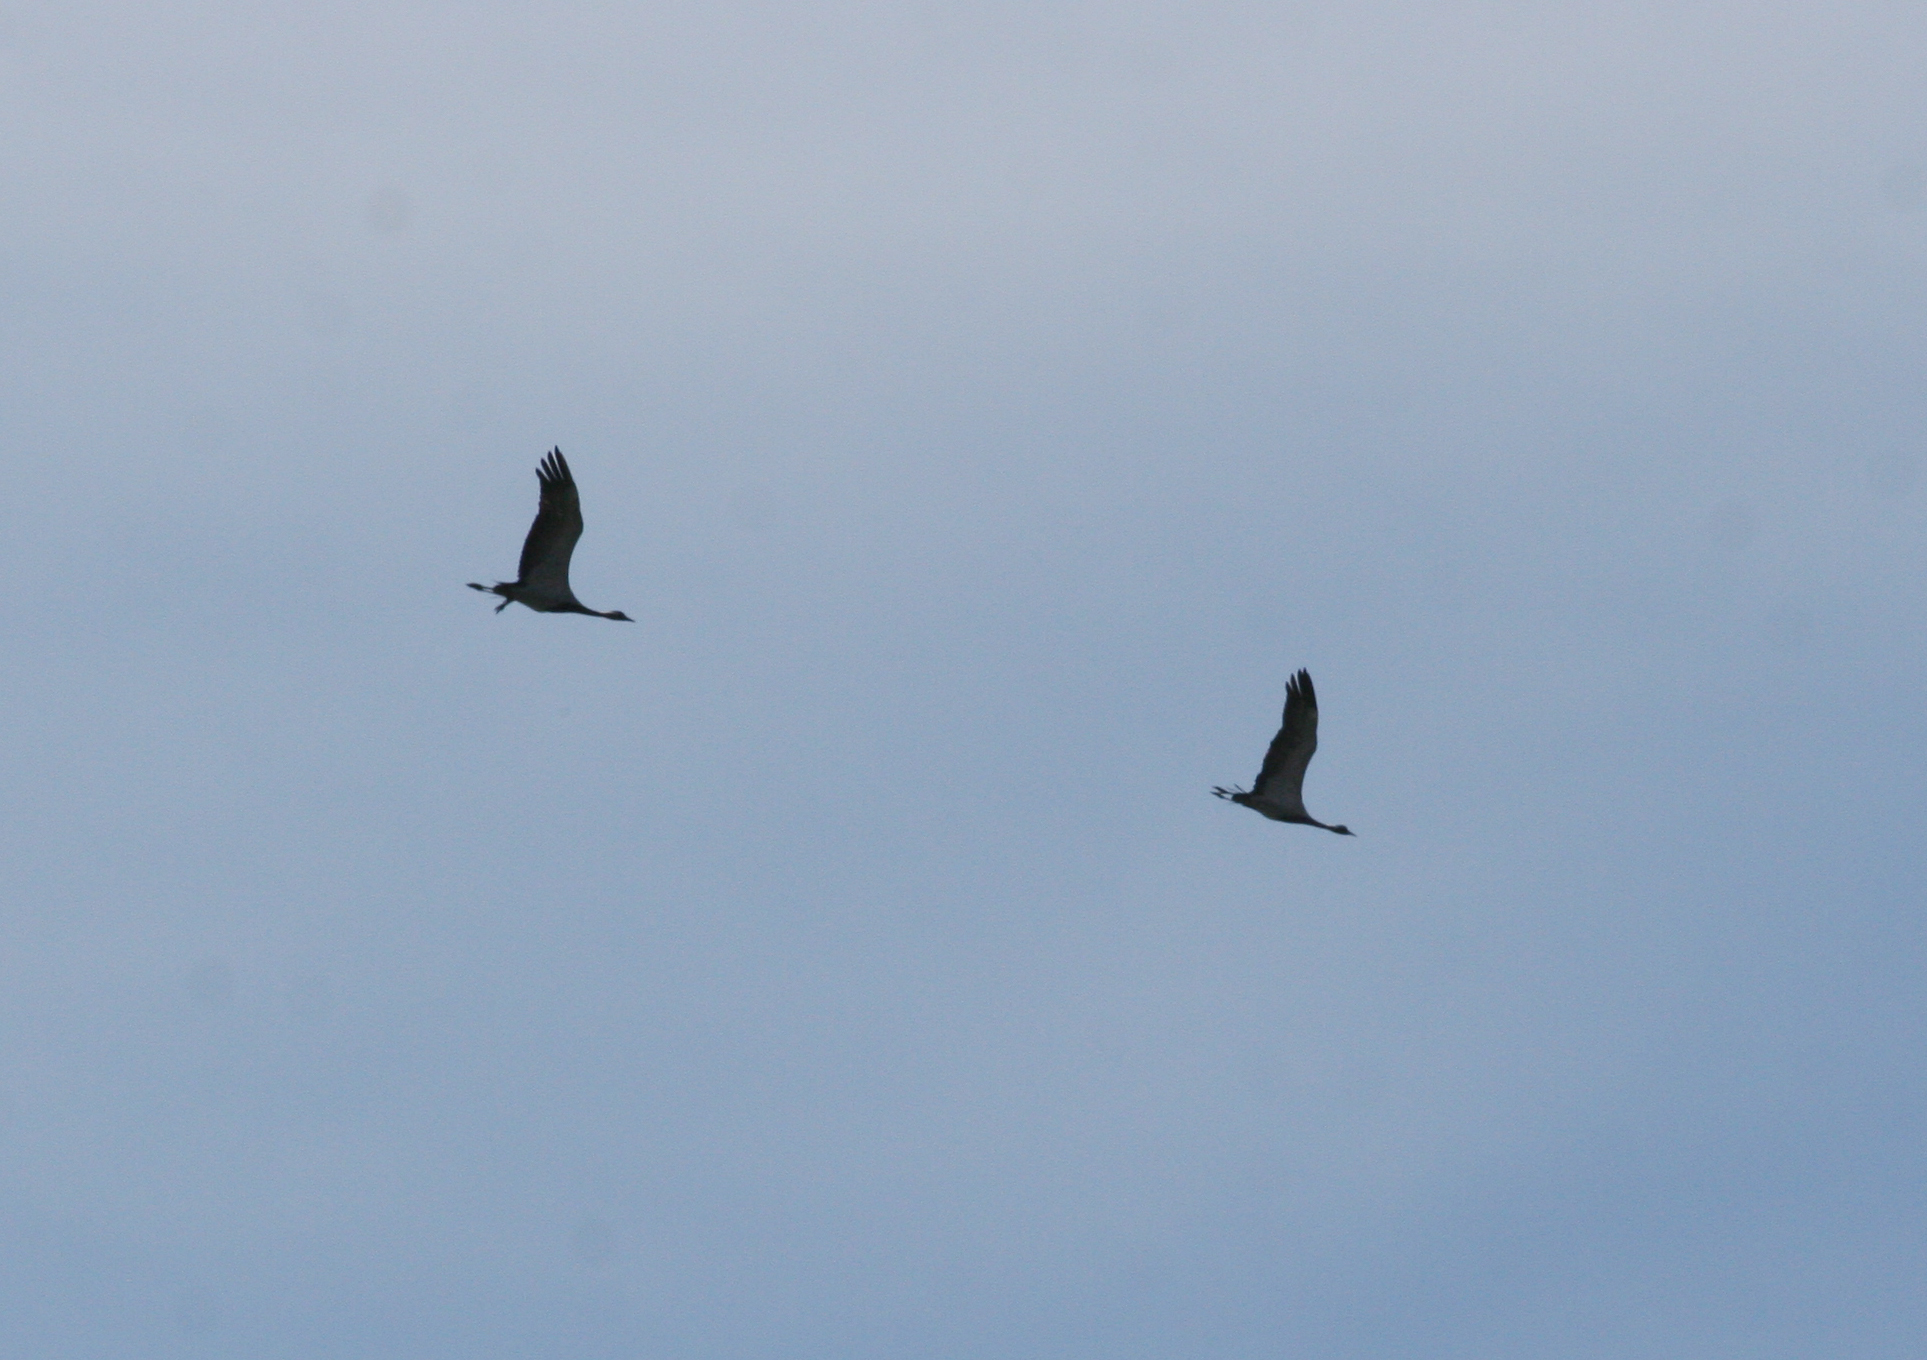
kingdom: Animalia
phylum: Chordata
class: Aves
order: Gruiformes
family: Gruidae
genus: Anthropoides
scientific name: Anthropoides virgo
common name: Demoiselle crane
